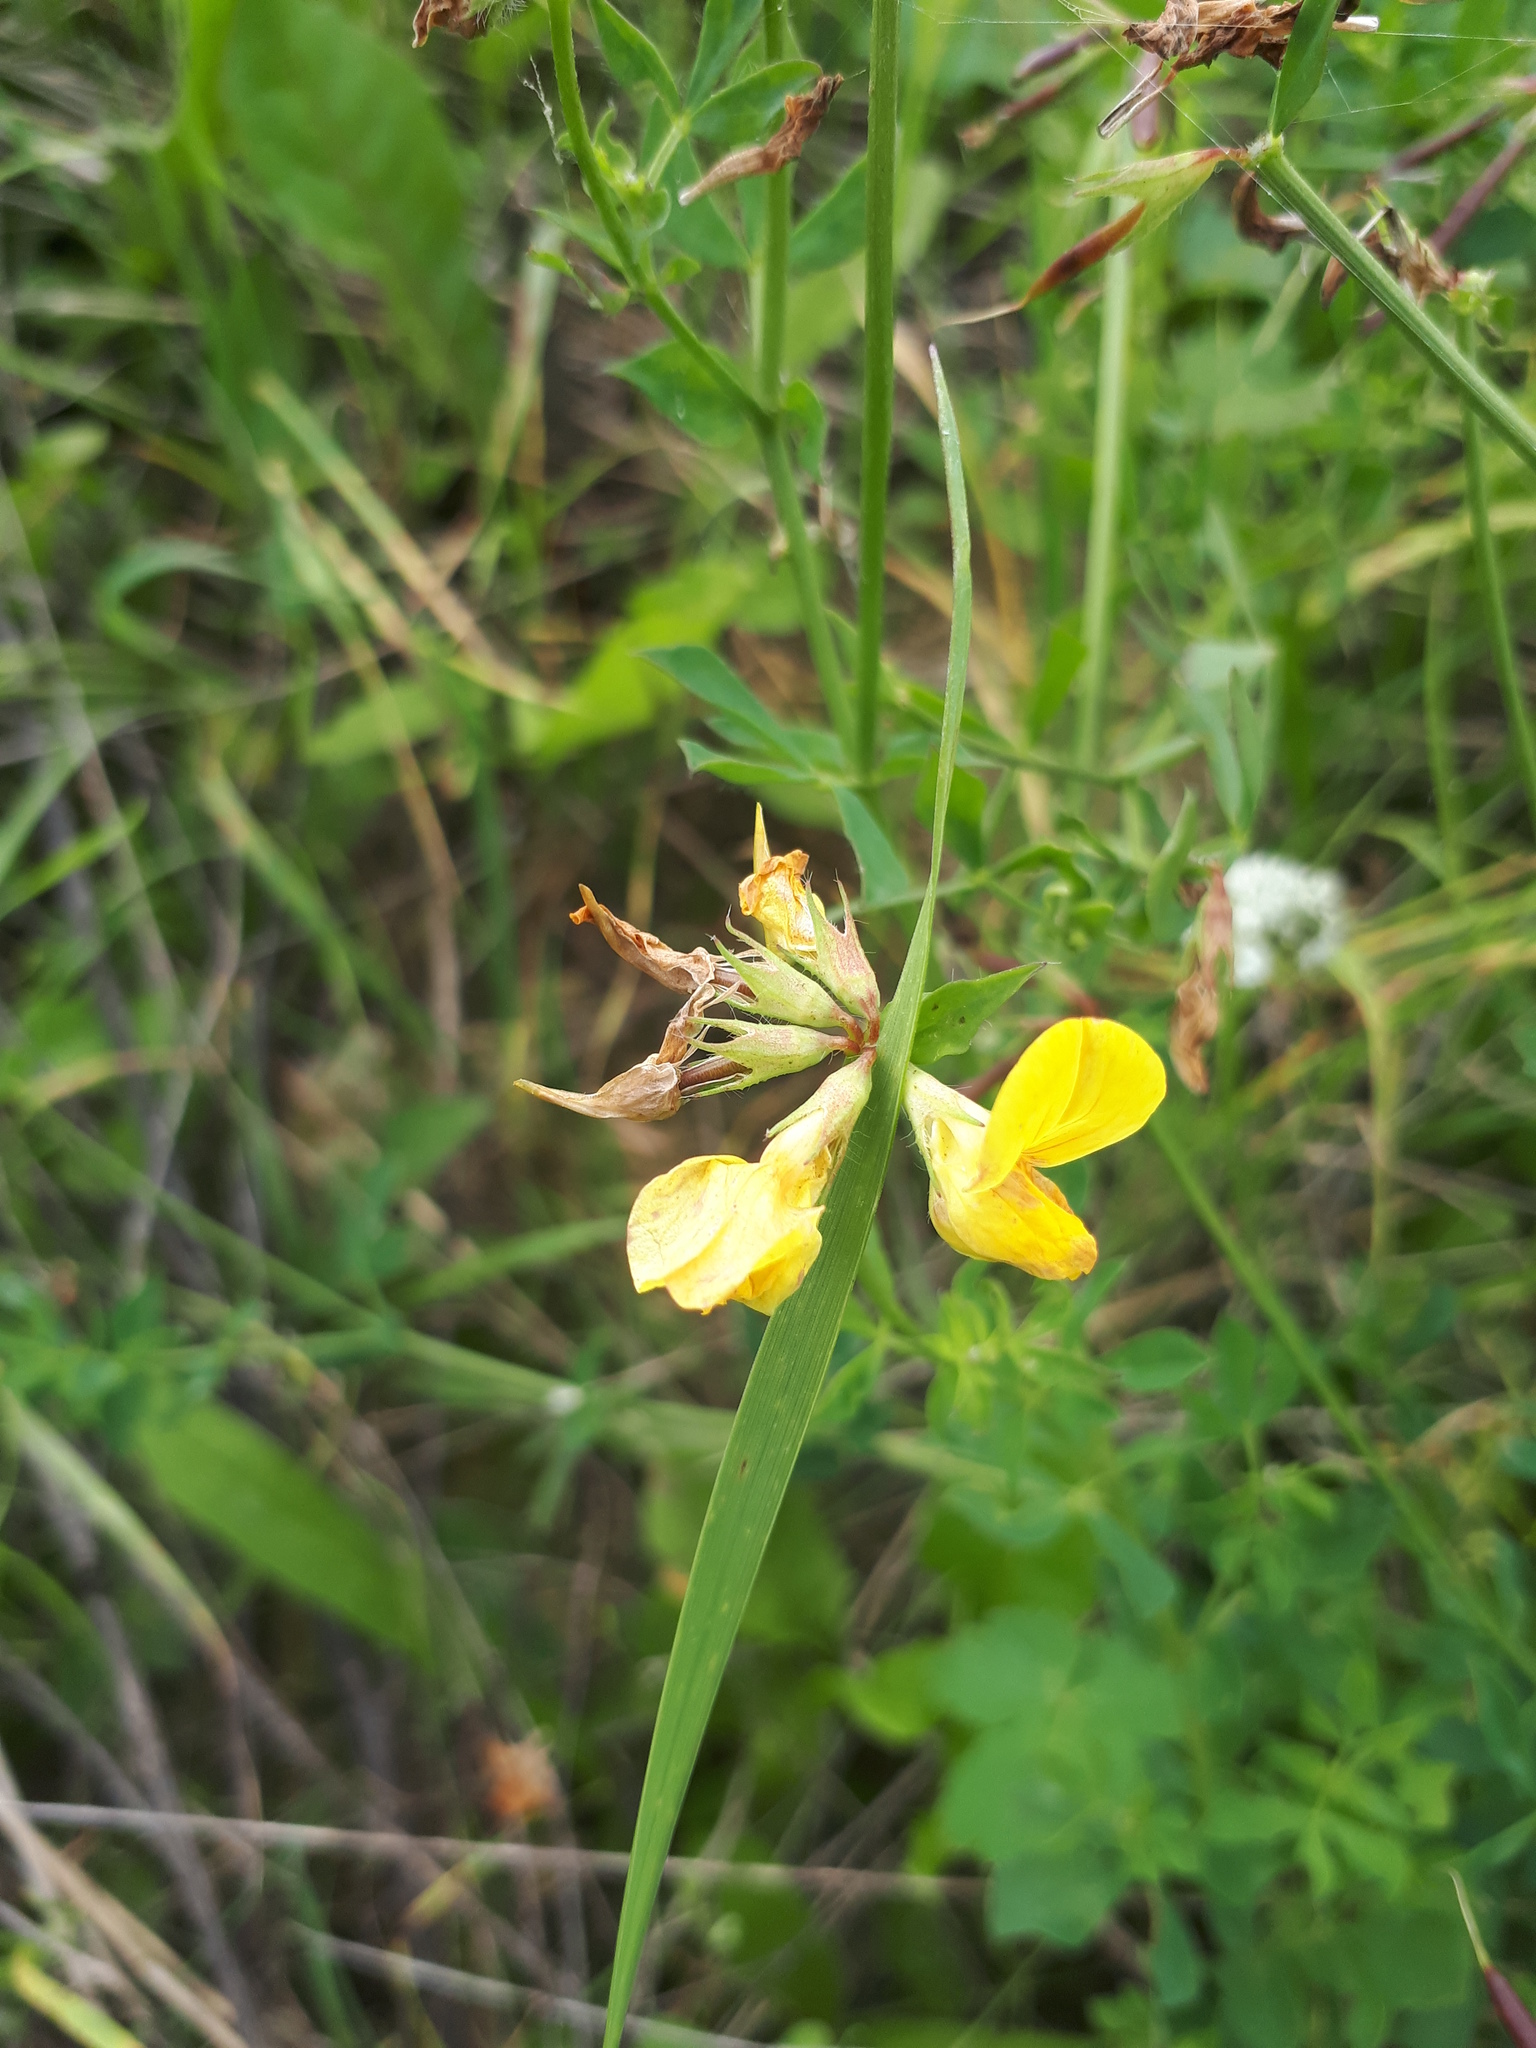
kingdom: Plantae
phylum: Tracheophyta
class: Magnoliopsida
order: Fabales
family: Fabaceae
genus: Lotus
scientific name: Lotus corniculatus
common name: Common bird's-foot-trefoil
